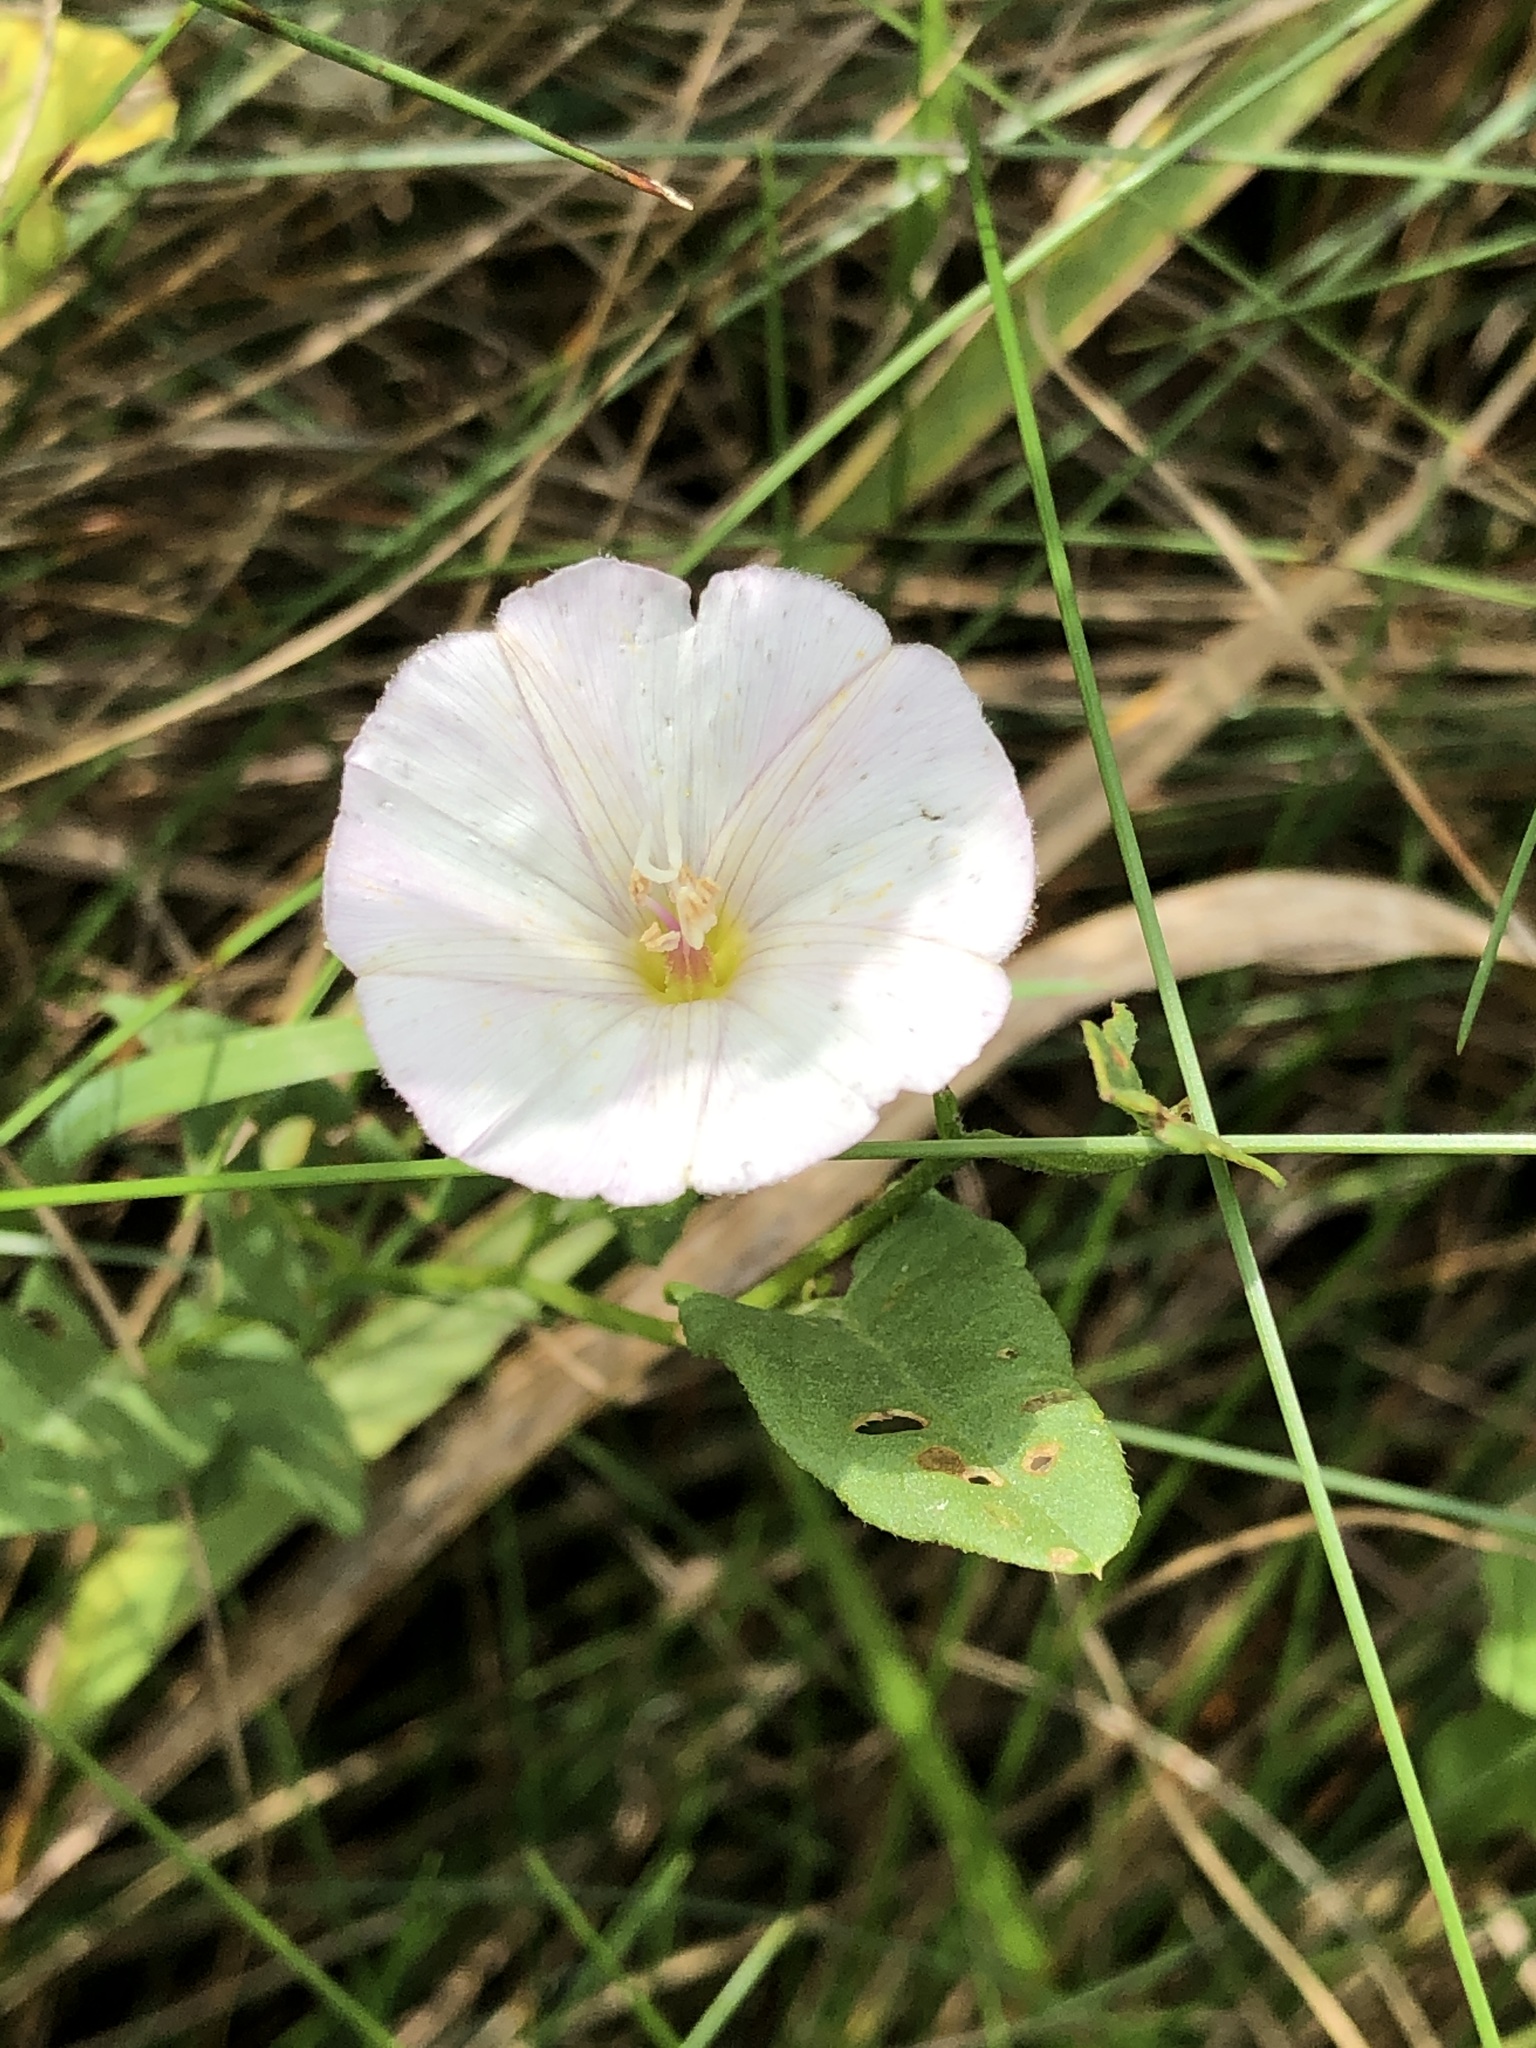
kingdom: Plantae
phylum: Tracheophyta
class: Magnoliopsida
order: Solanales
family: Convolvulaceae
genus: Convolvulus
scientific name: Convolvulus arvensis
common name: Field bindweed
